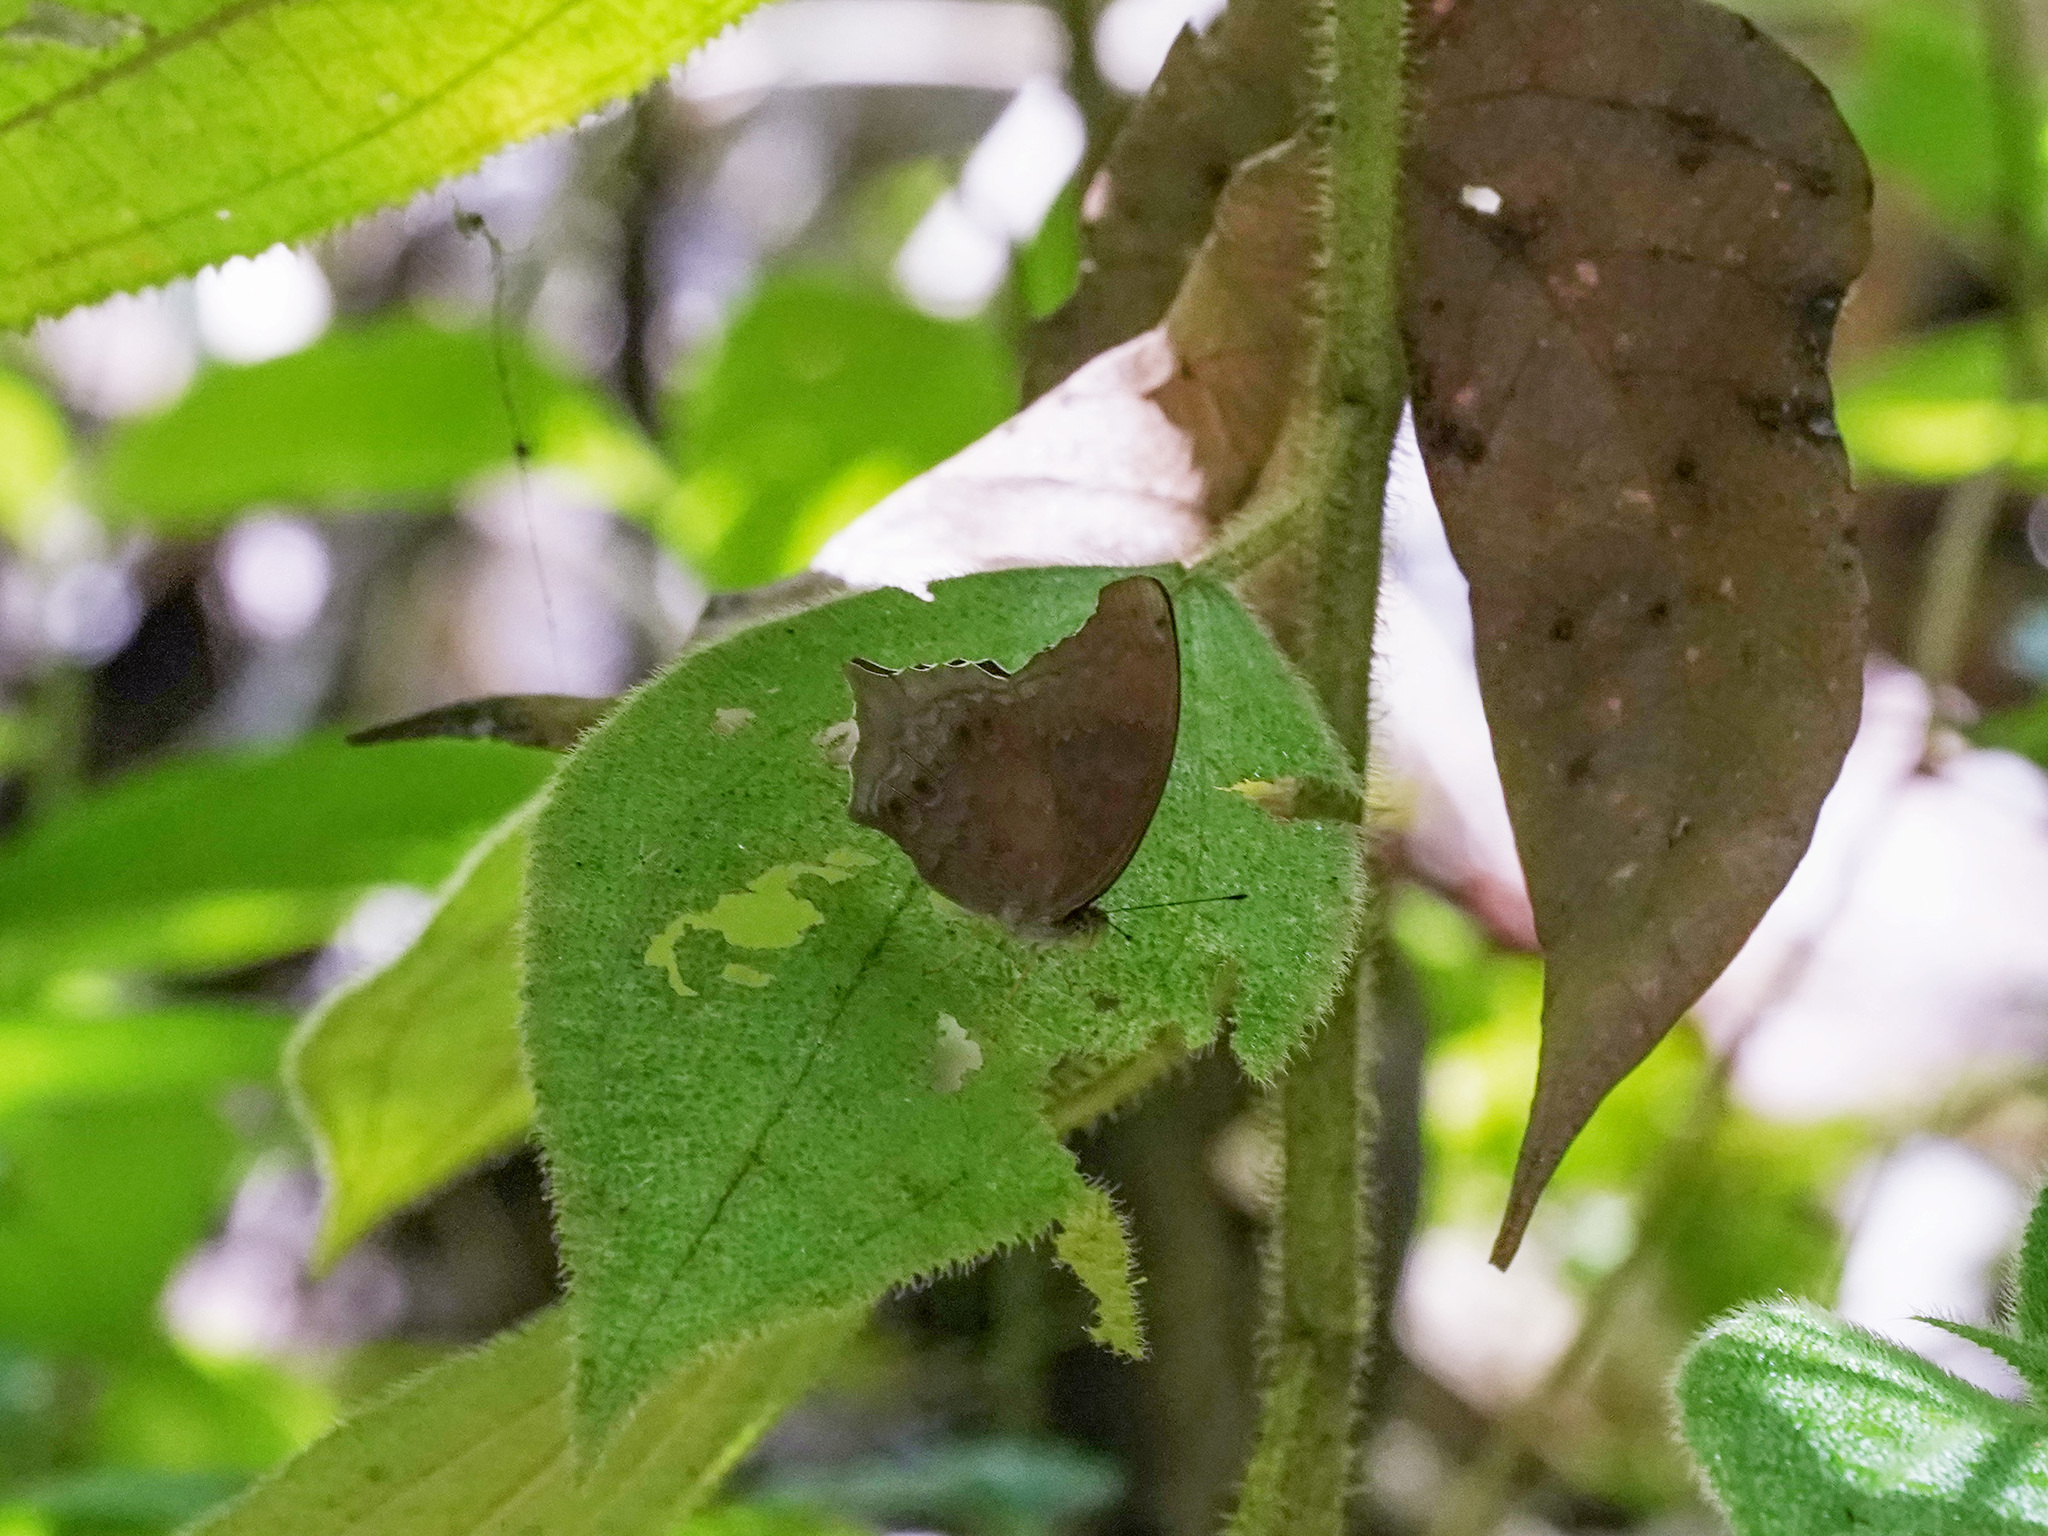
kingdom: Animalia
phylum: Arthropoda
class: Insecta
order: Lepidoptera
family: Nymphalidae
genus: Terinos
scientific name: Terinos atlita
